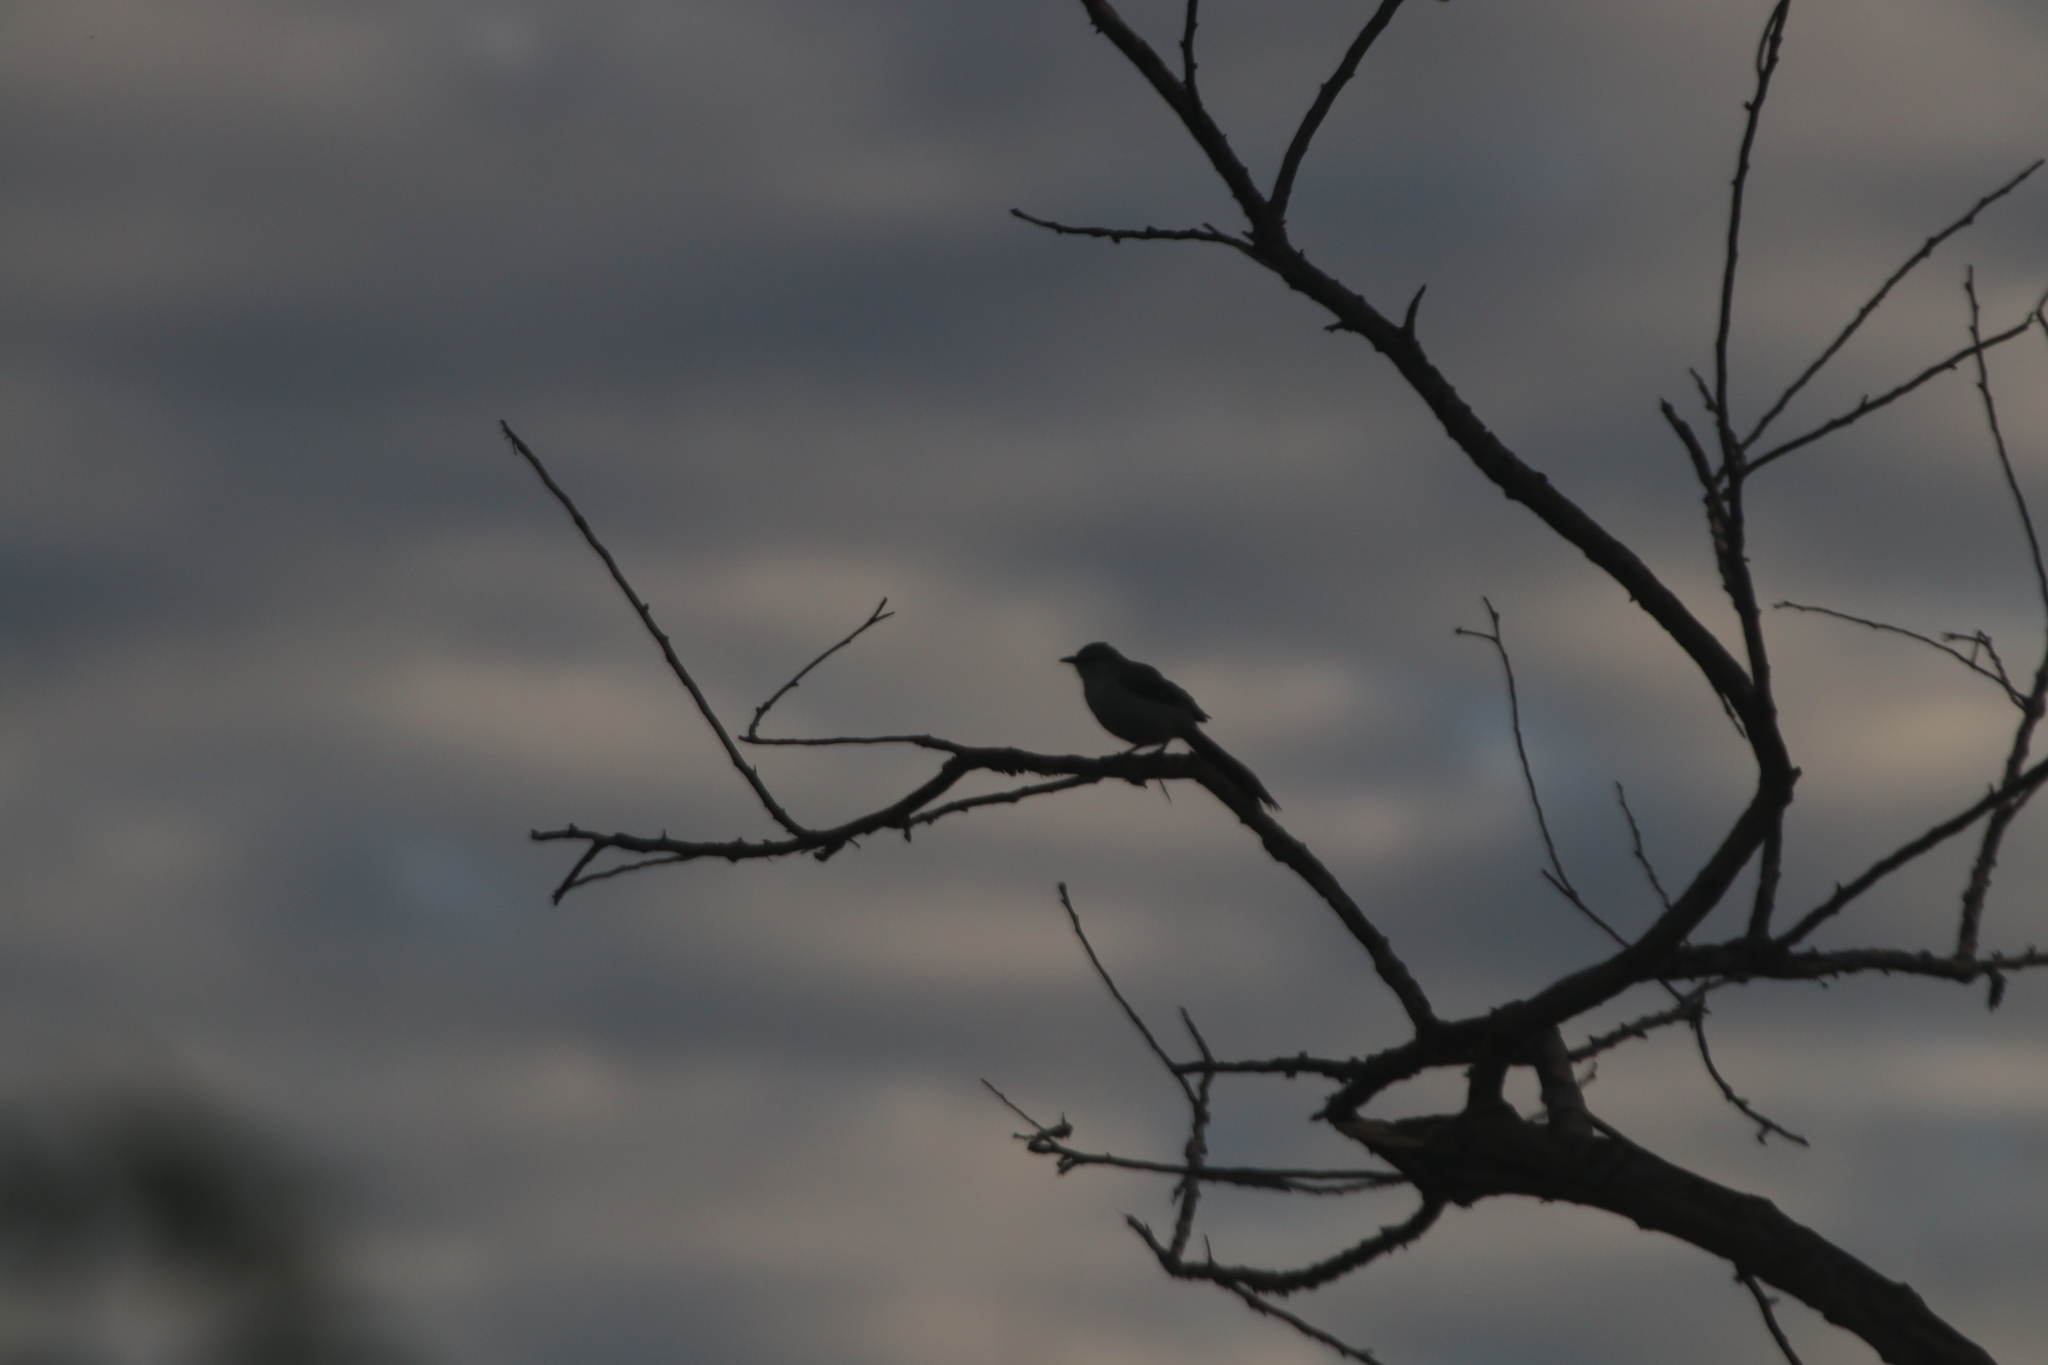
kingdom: Animalia
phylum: Chordata
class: Aves
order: Passeriformes
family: Mimidae
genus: Mimus
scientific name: Mimus gilvus
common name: Tropical mockingbird
